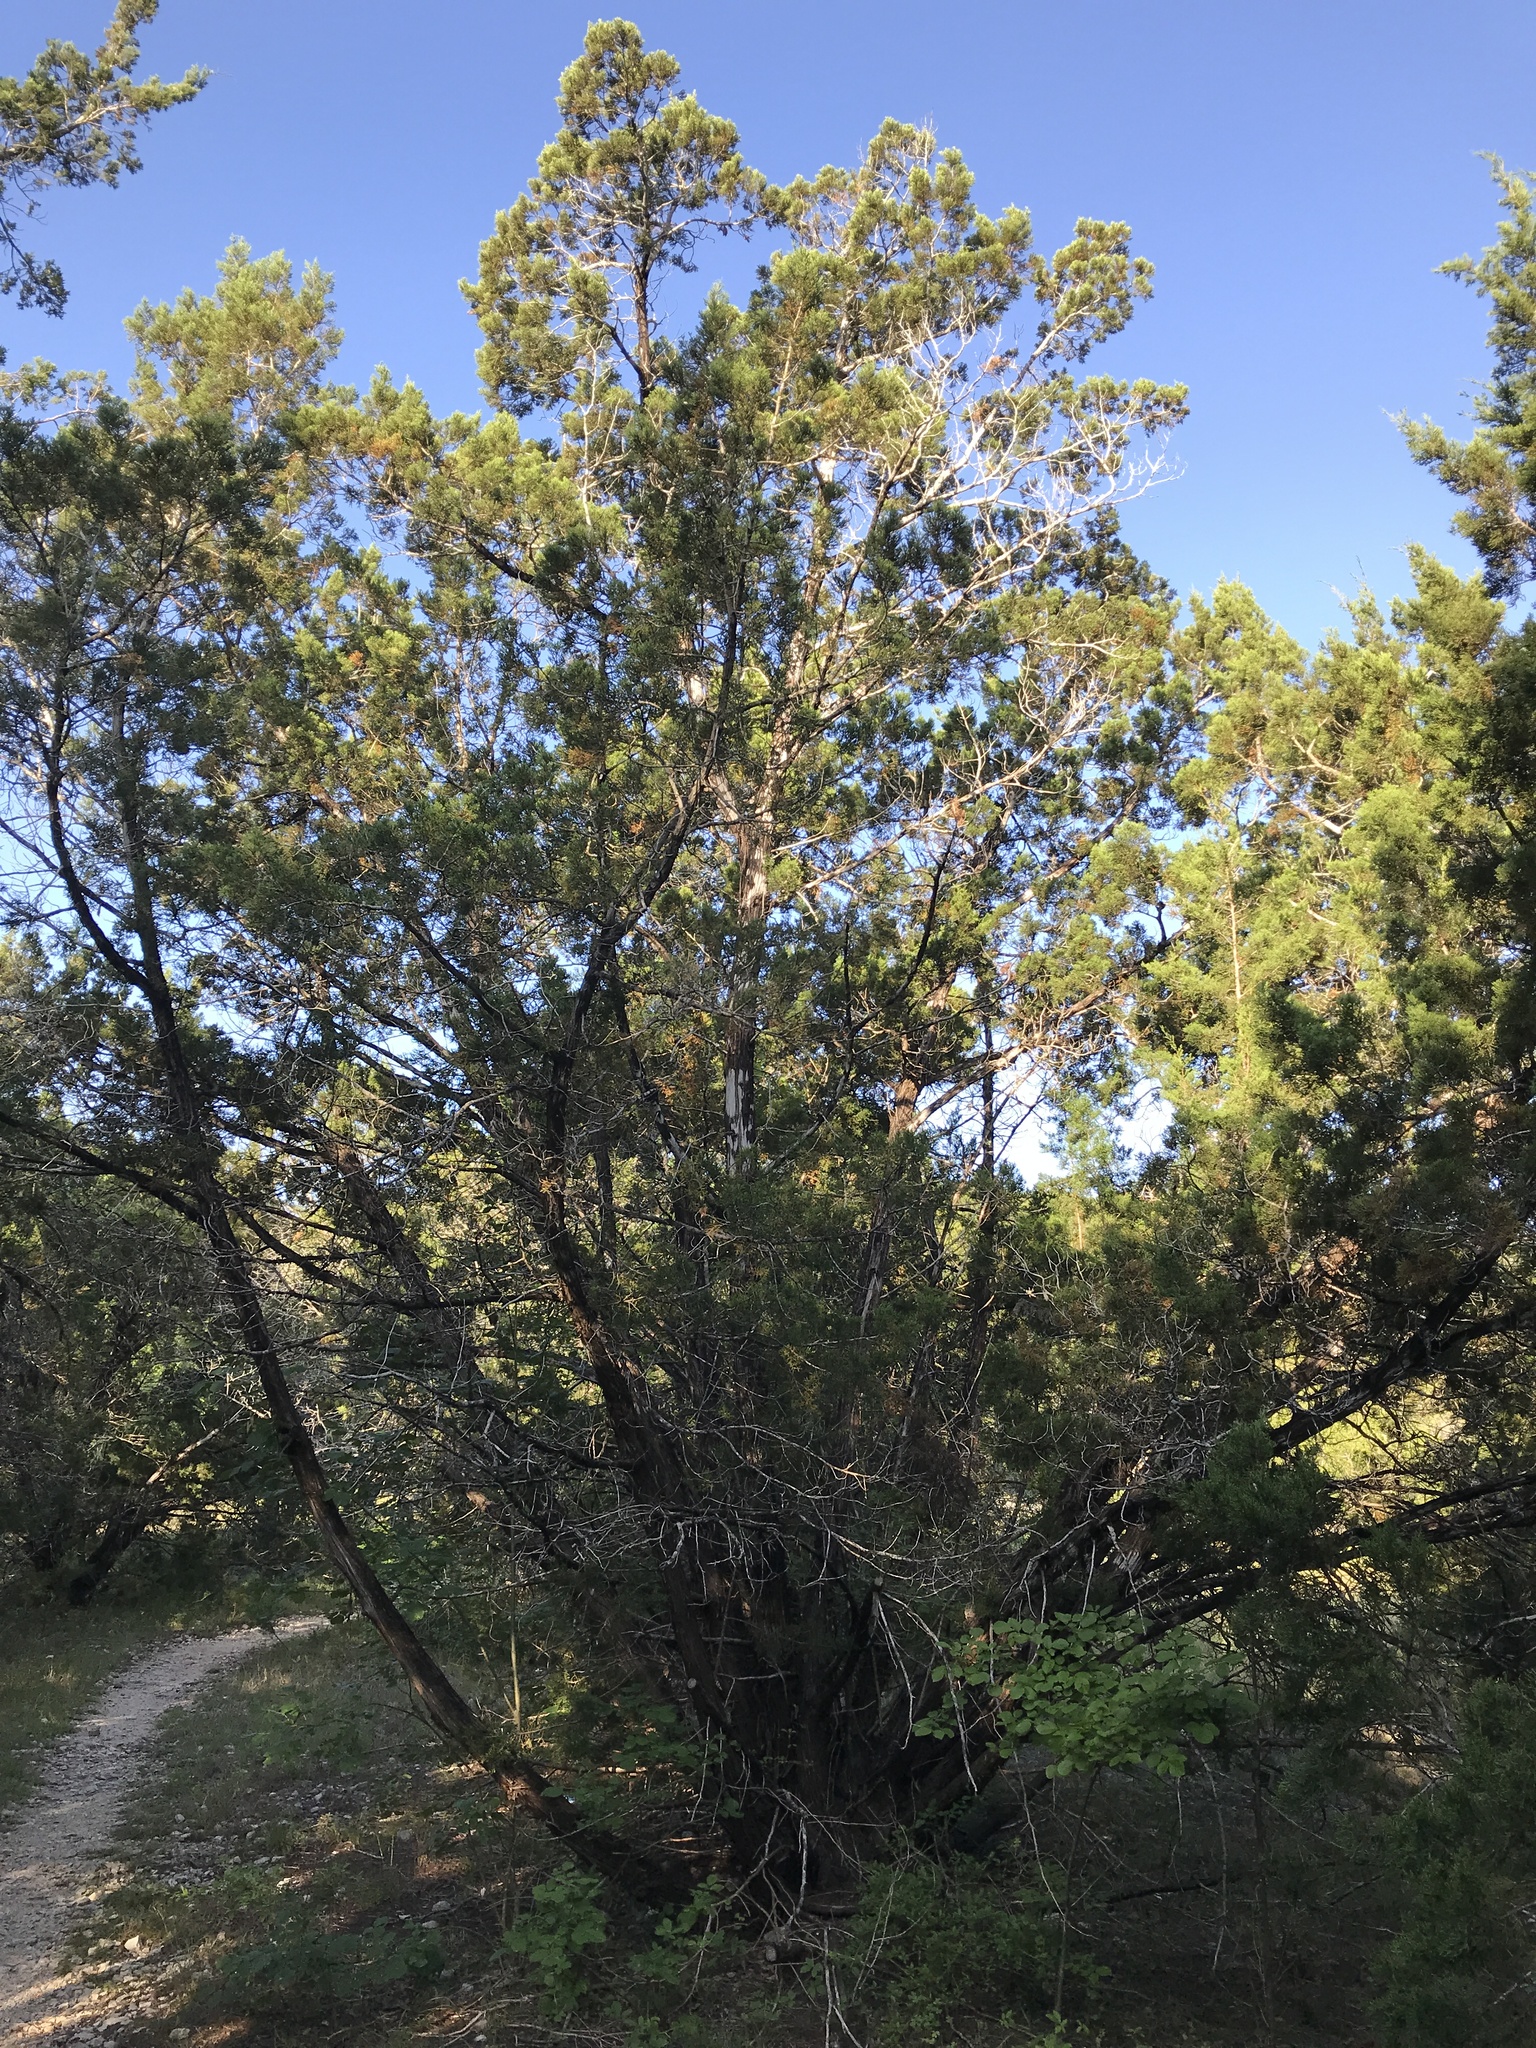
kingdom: Plantae
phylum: Tracheophyta
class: Pinopsida
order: Pinales
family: Cupressaceae
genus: Juniperus
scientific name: Juniperus ashei
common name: Mexican juniper
